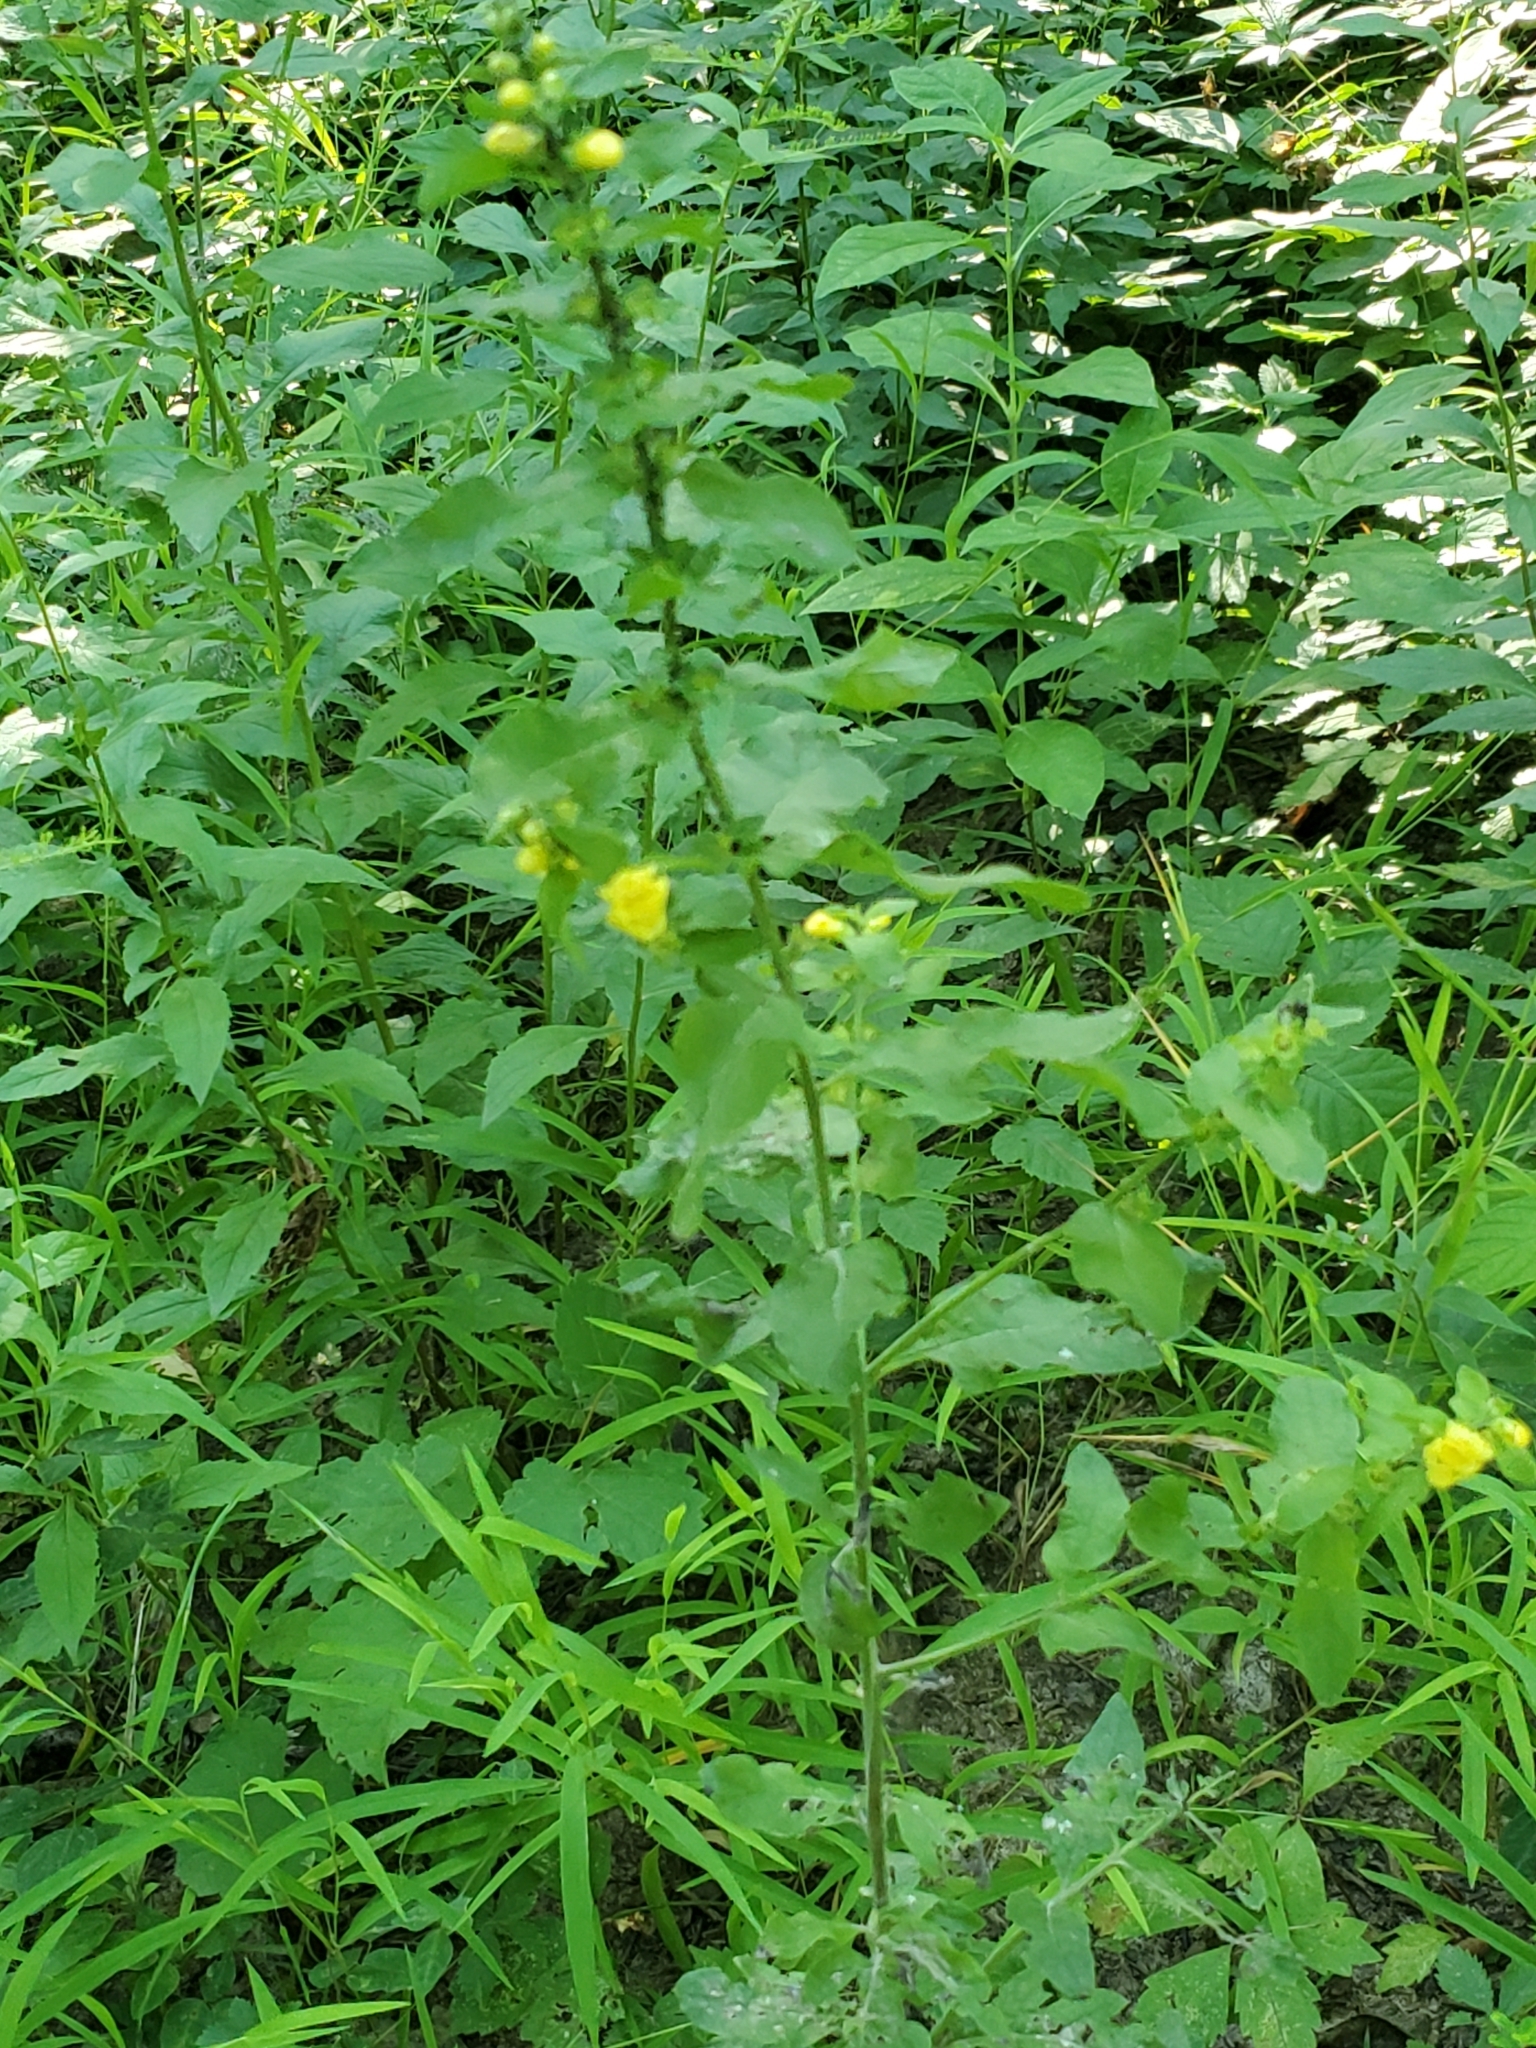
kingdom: Plantae
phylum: Tracheophyta
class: Magnoliopsida
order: Lamiales
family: Orobanchaceae
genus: Dasistoma
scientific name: Dasistoma macrophyllum
